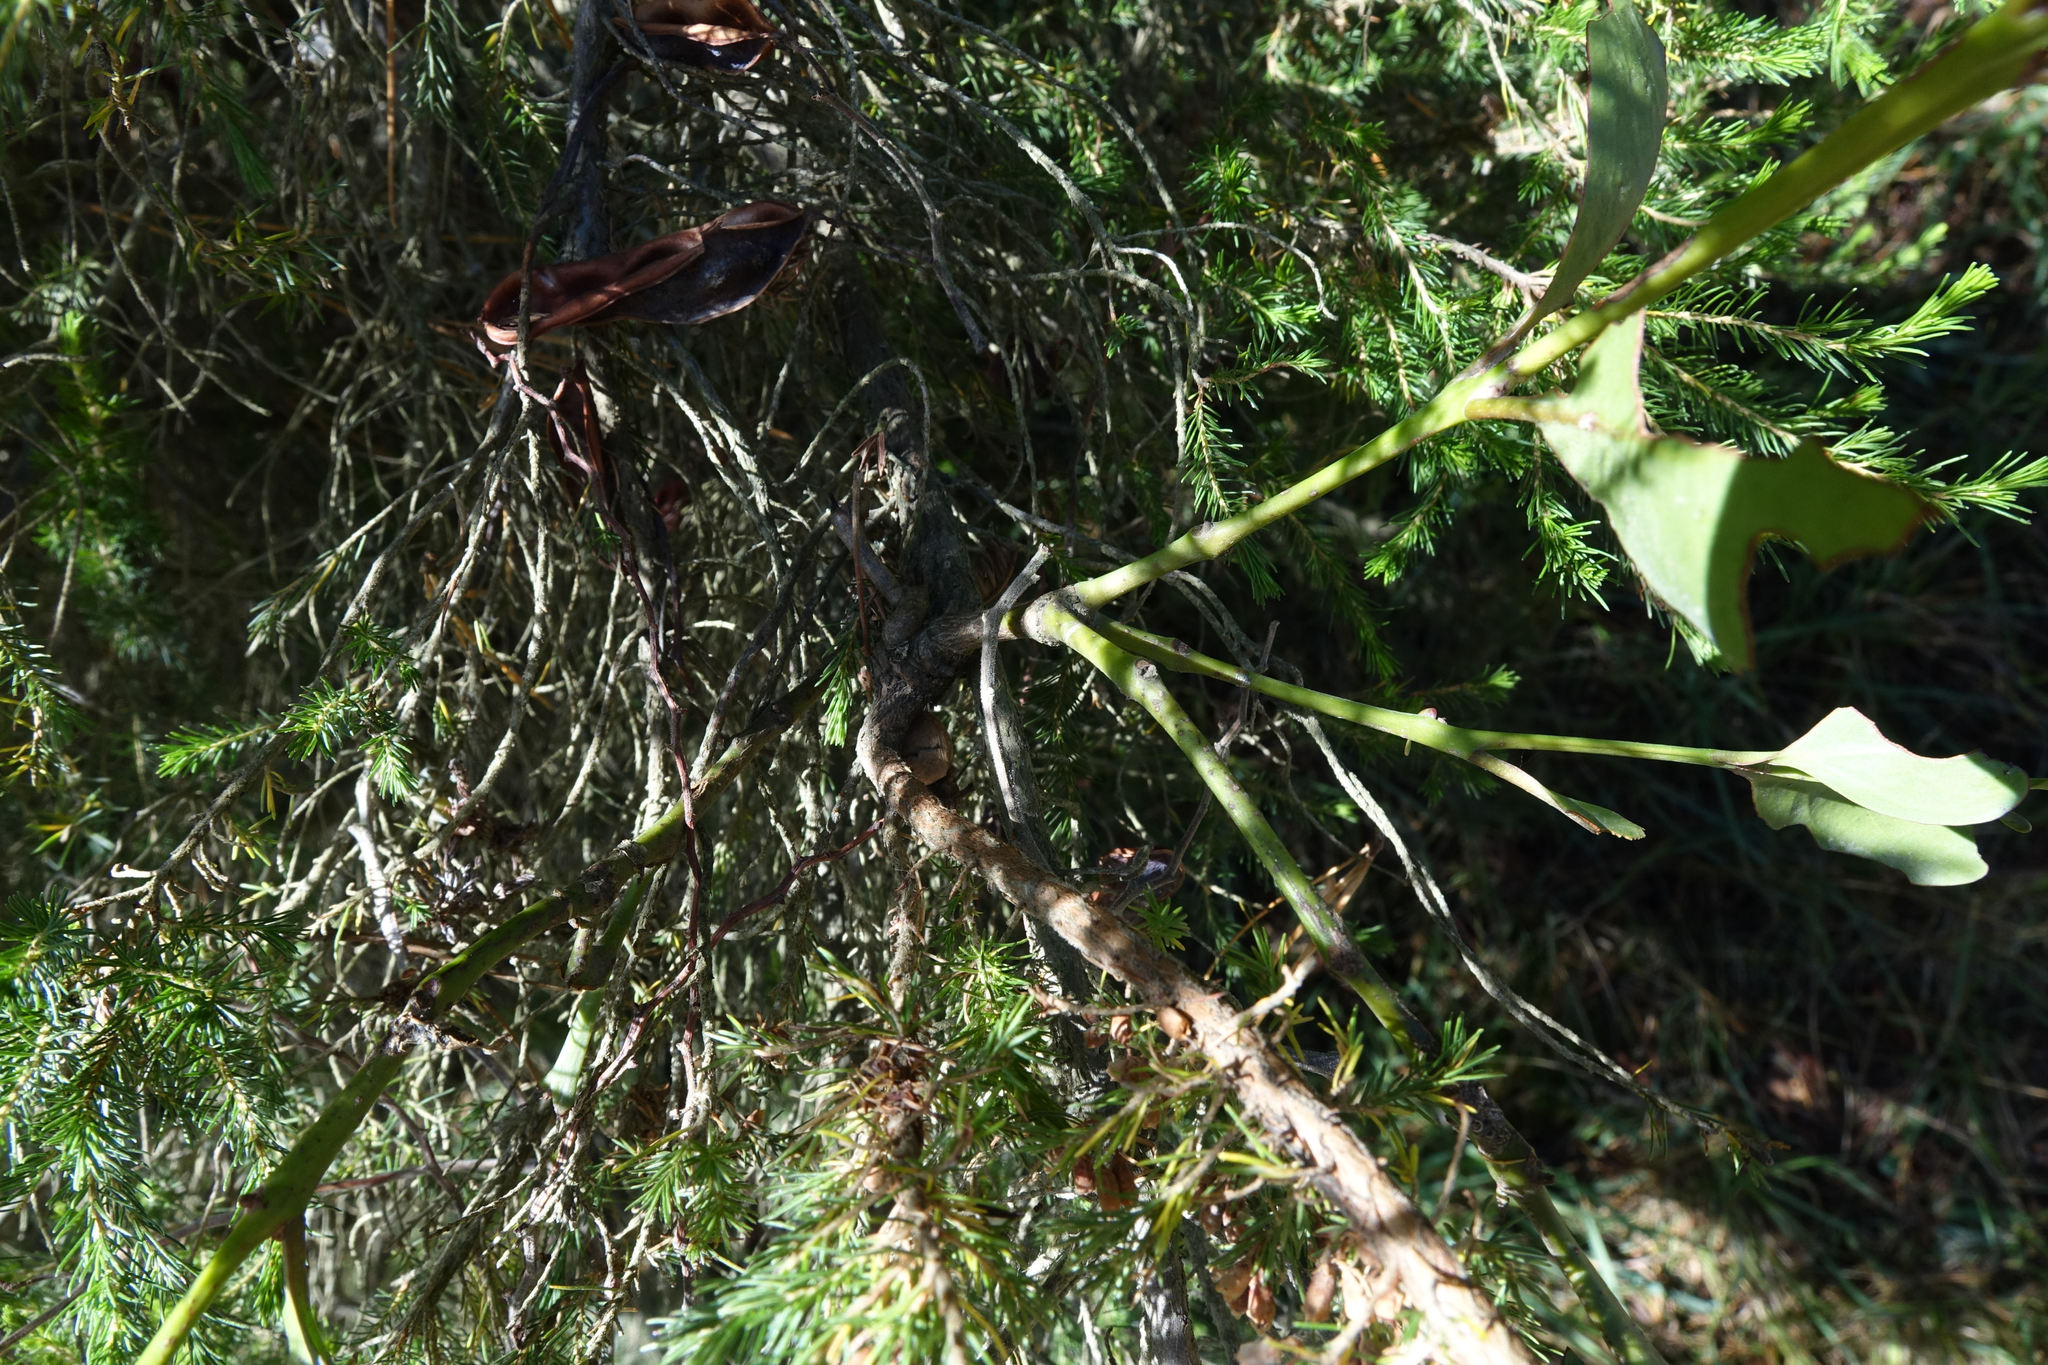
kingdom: Plantae
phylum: Tracheophyta
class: Magnoliopsida
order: Santalales
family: Loranthaceae
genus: Ileostylus
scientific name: Ileostylus micranthus
